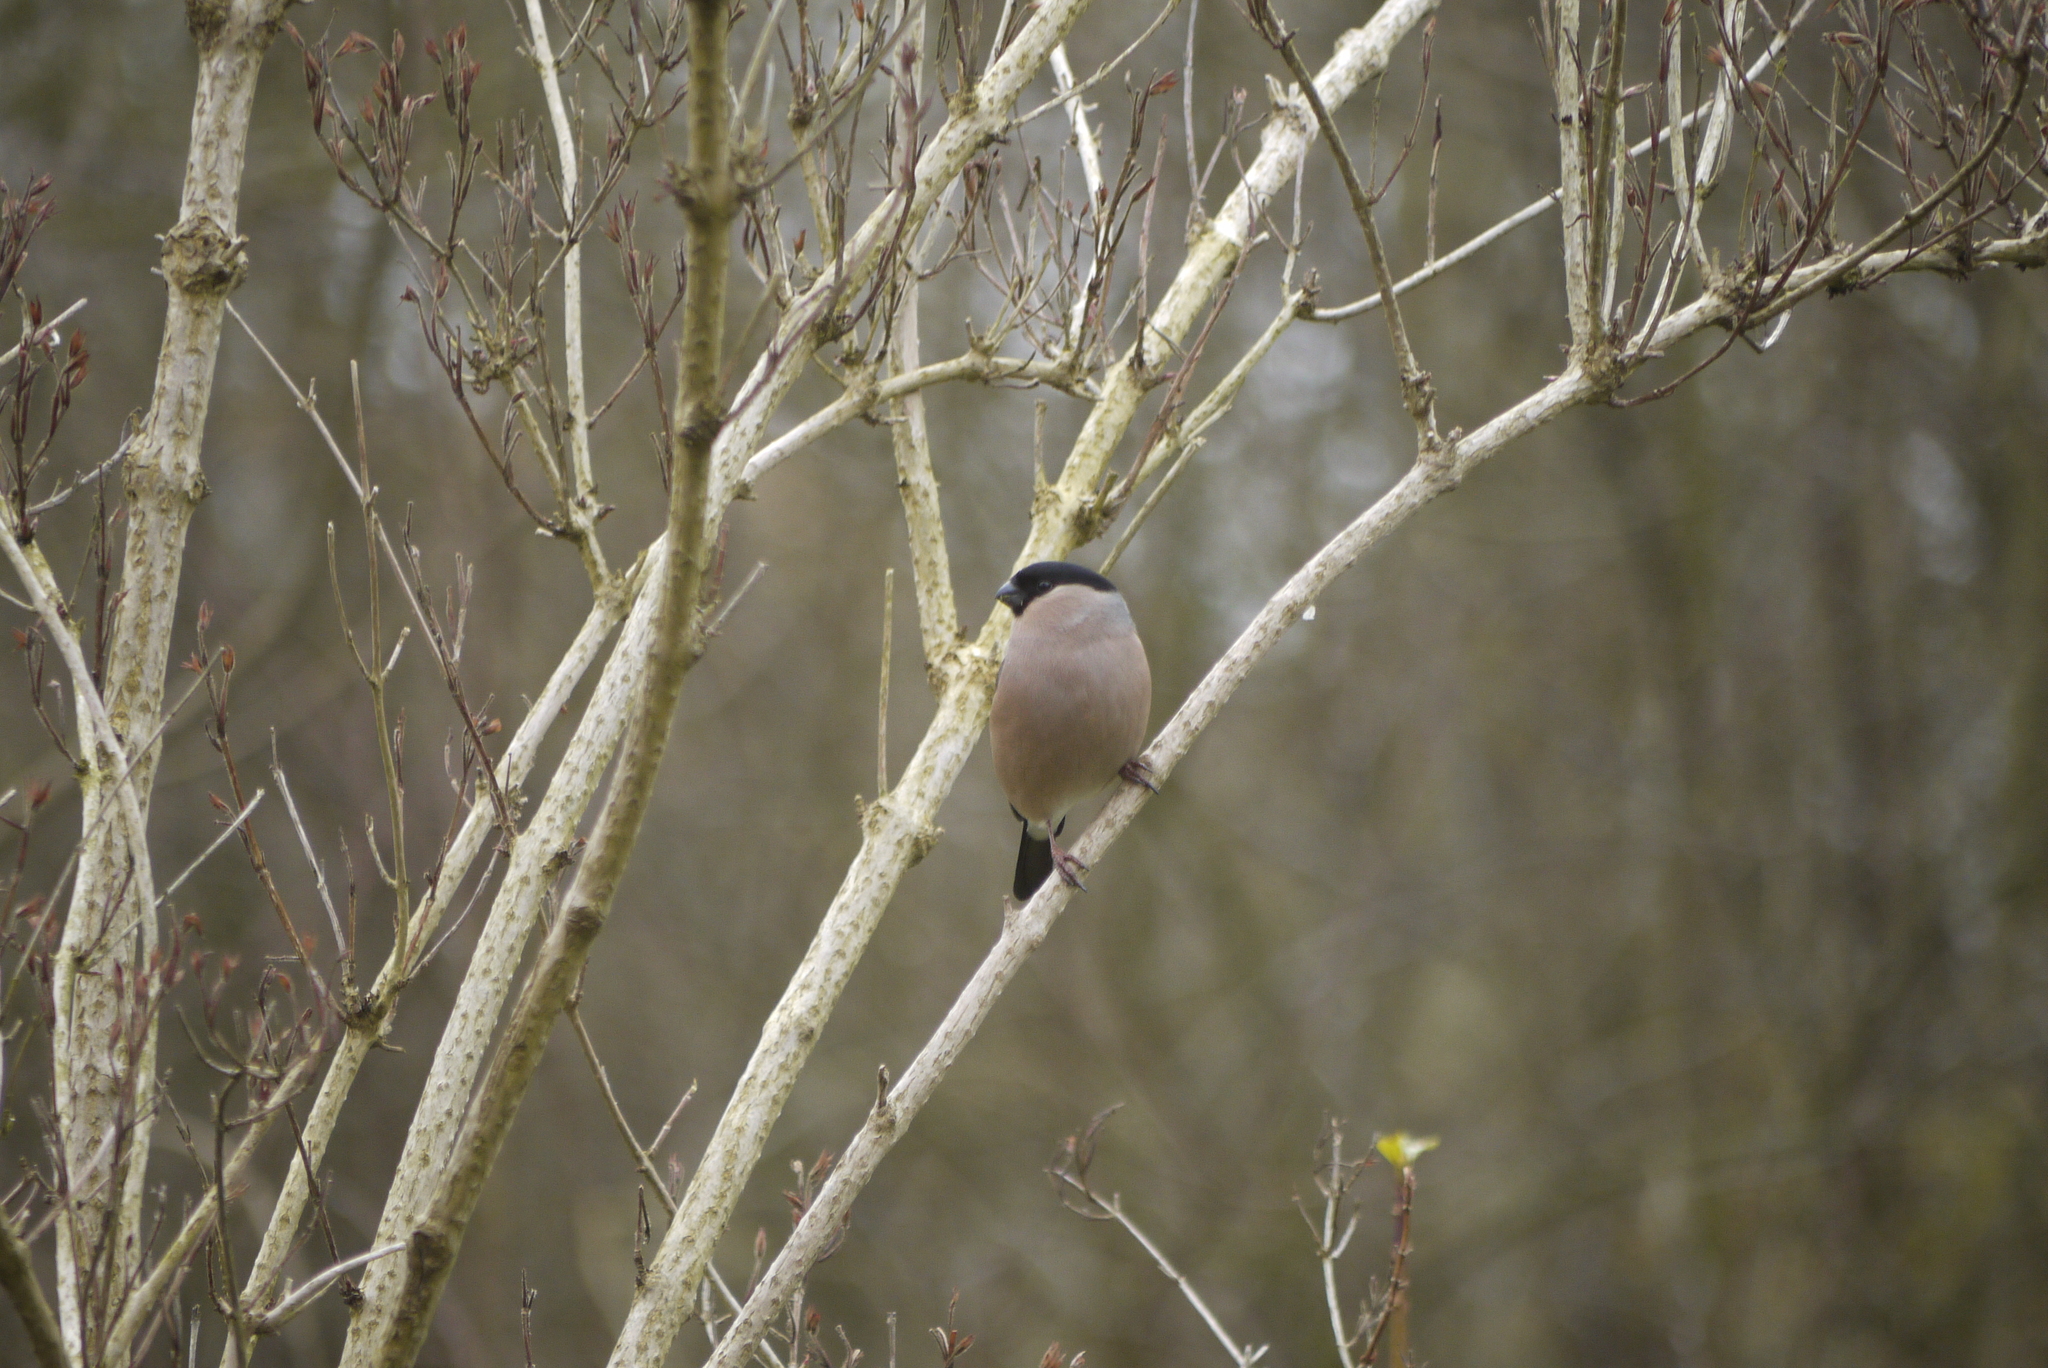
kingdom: Animalia
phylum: Chordata
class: Aves
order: Passeriformes
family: Fringillidae
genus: Pyrrhula
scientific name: Pyrrhula pyrrhula
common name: Eurasian bullfinch
